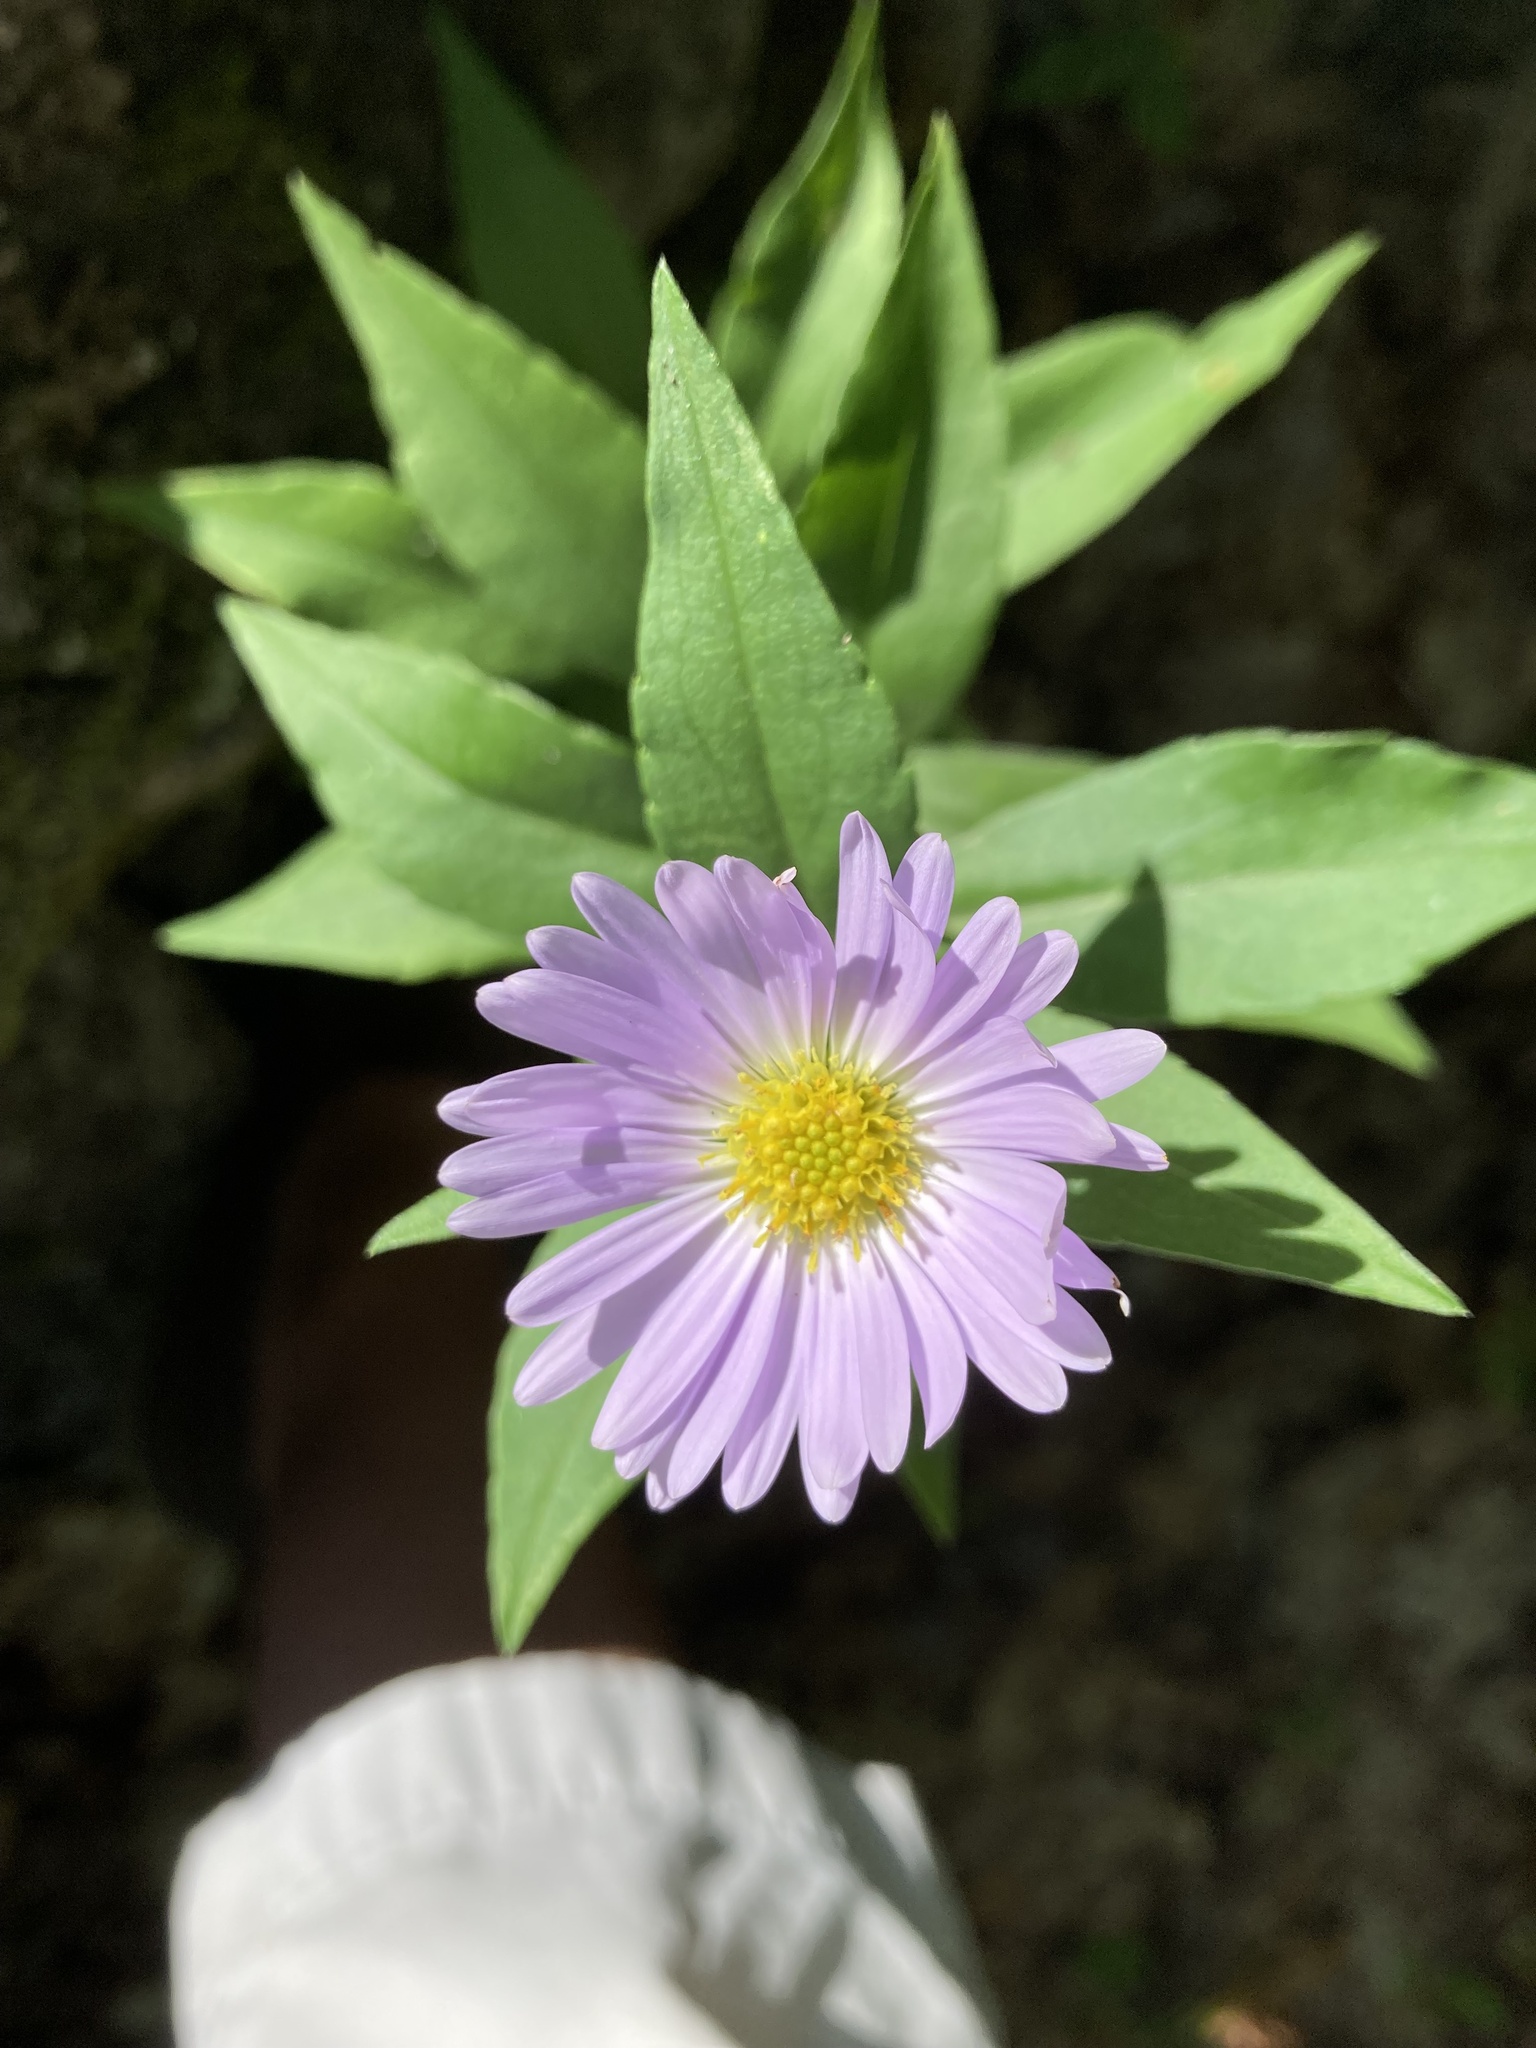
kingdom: Plantae
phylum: Tracheophyta
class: Magnoliopsida
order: Asterales
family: Asteraceae
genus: Symphyotrichum
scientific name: Symphyotrichum novi-belgii
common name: Michaelmas daisy
